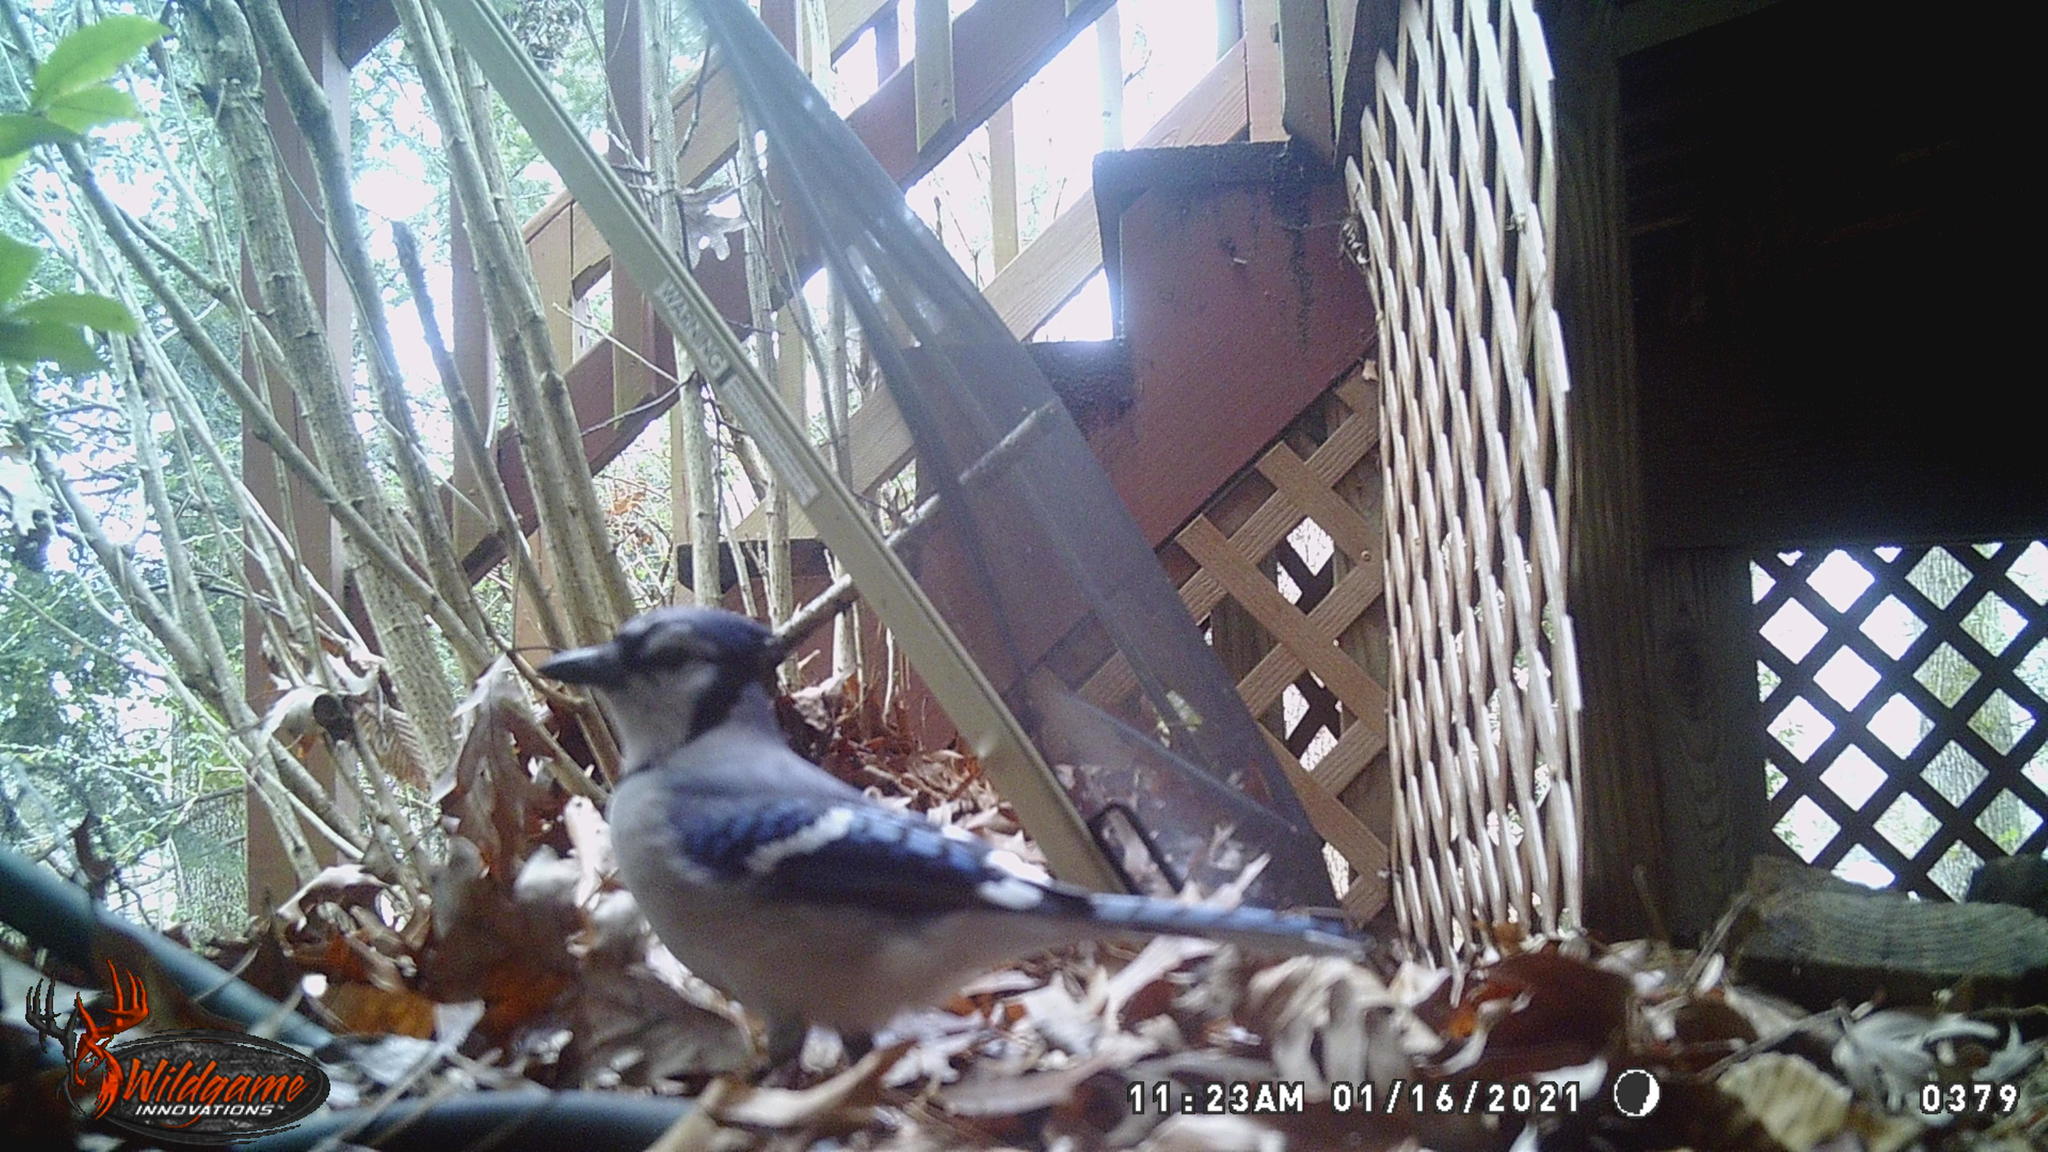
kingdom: Animalia
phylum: Chordata
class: Aves
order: Passeriformes
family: Corvidae
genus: Cyanocitta
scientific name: Cyanocitta cristata
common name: Blue jay
